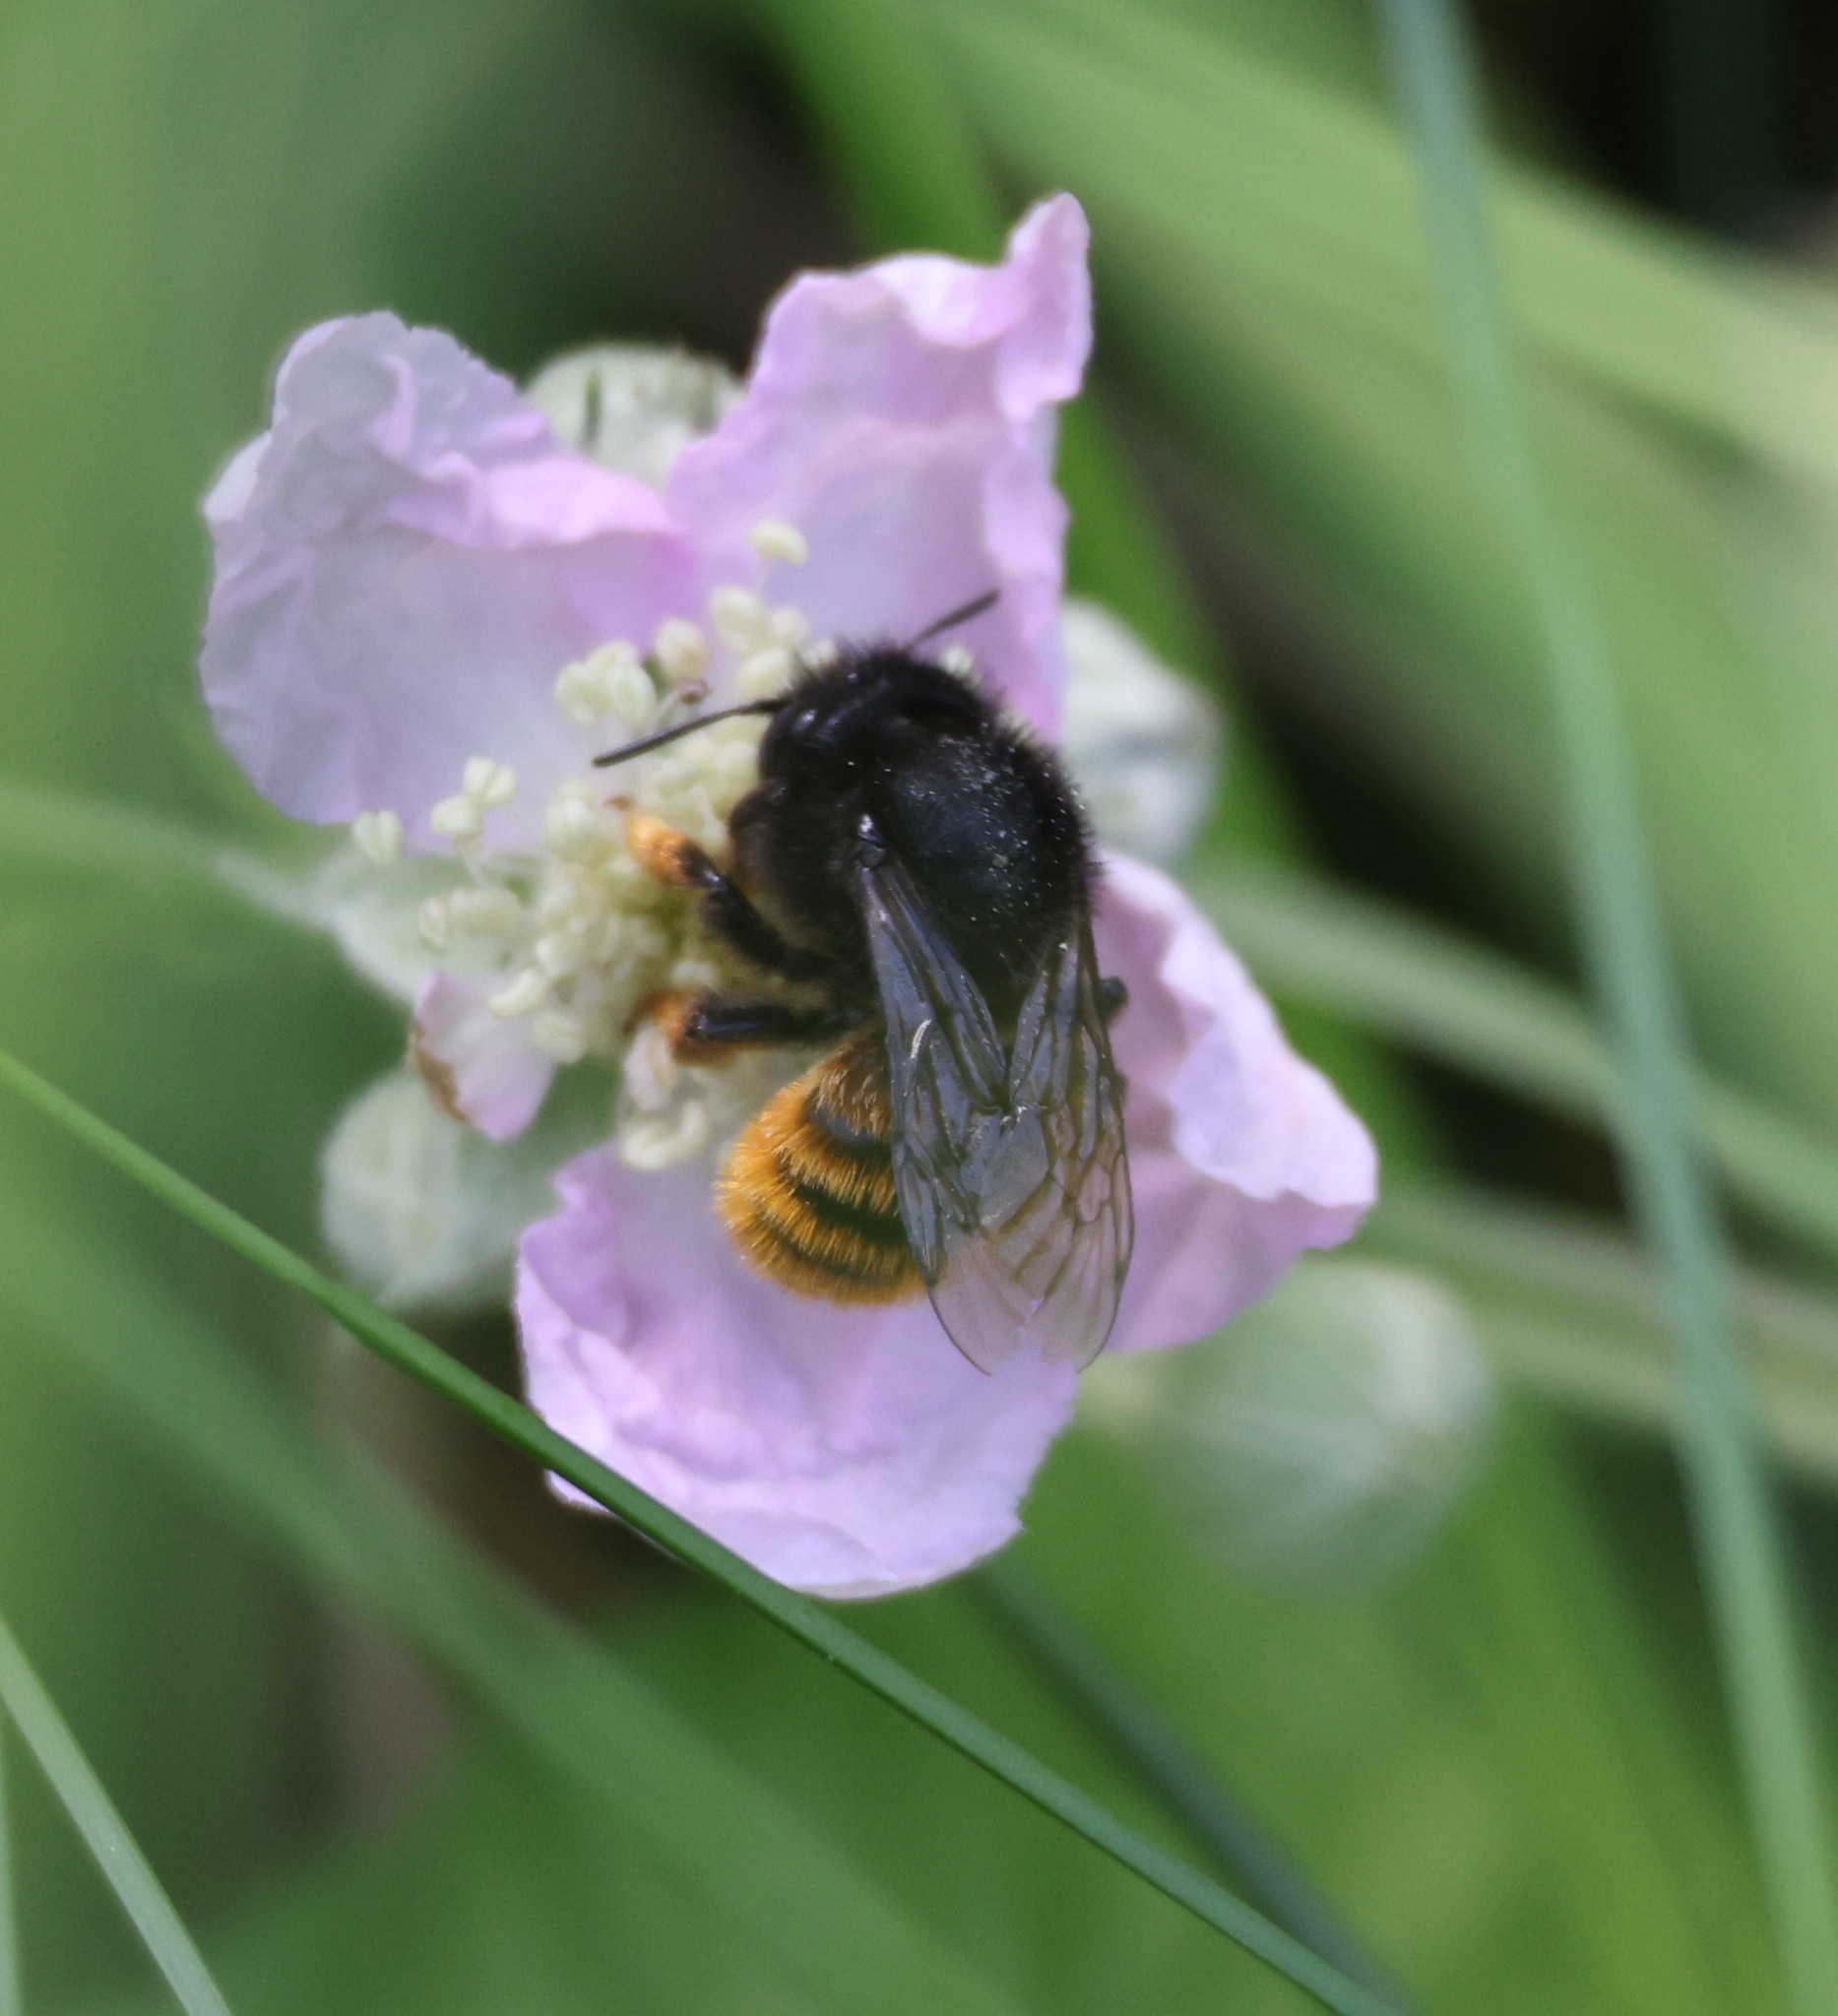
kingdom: Animalia
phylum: Arthropoda
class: Insecta
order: Hymenoptera
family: Megachilidae
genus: Osmia
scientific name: Osmia bicolor
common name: Red-tailed mason bee
